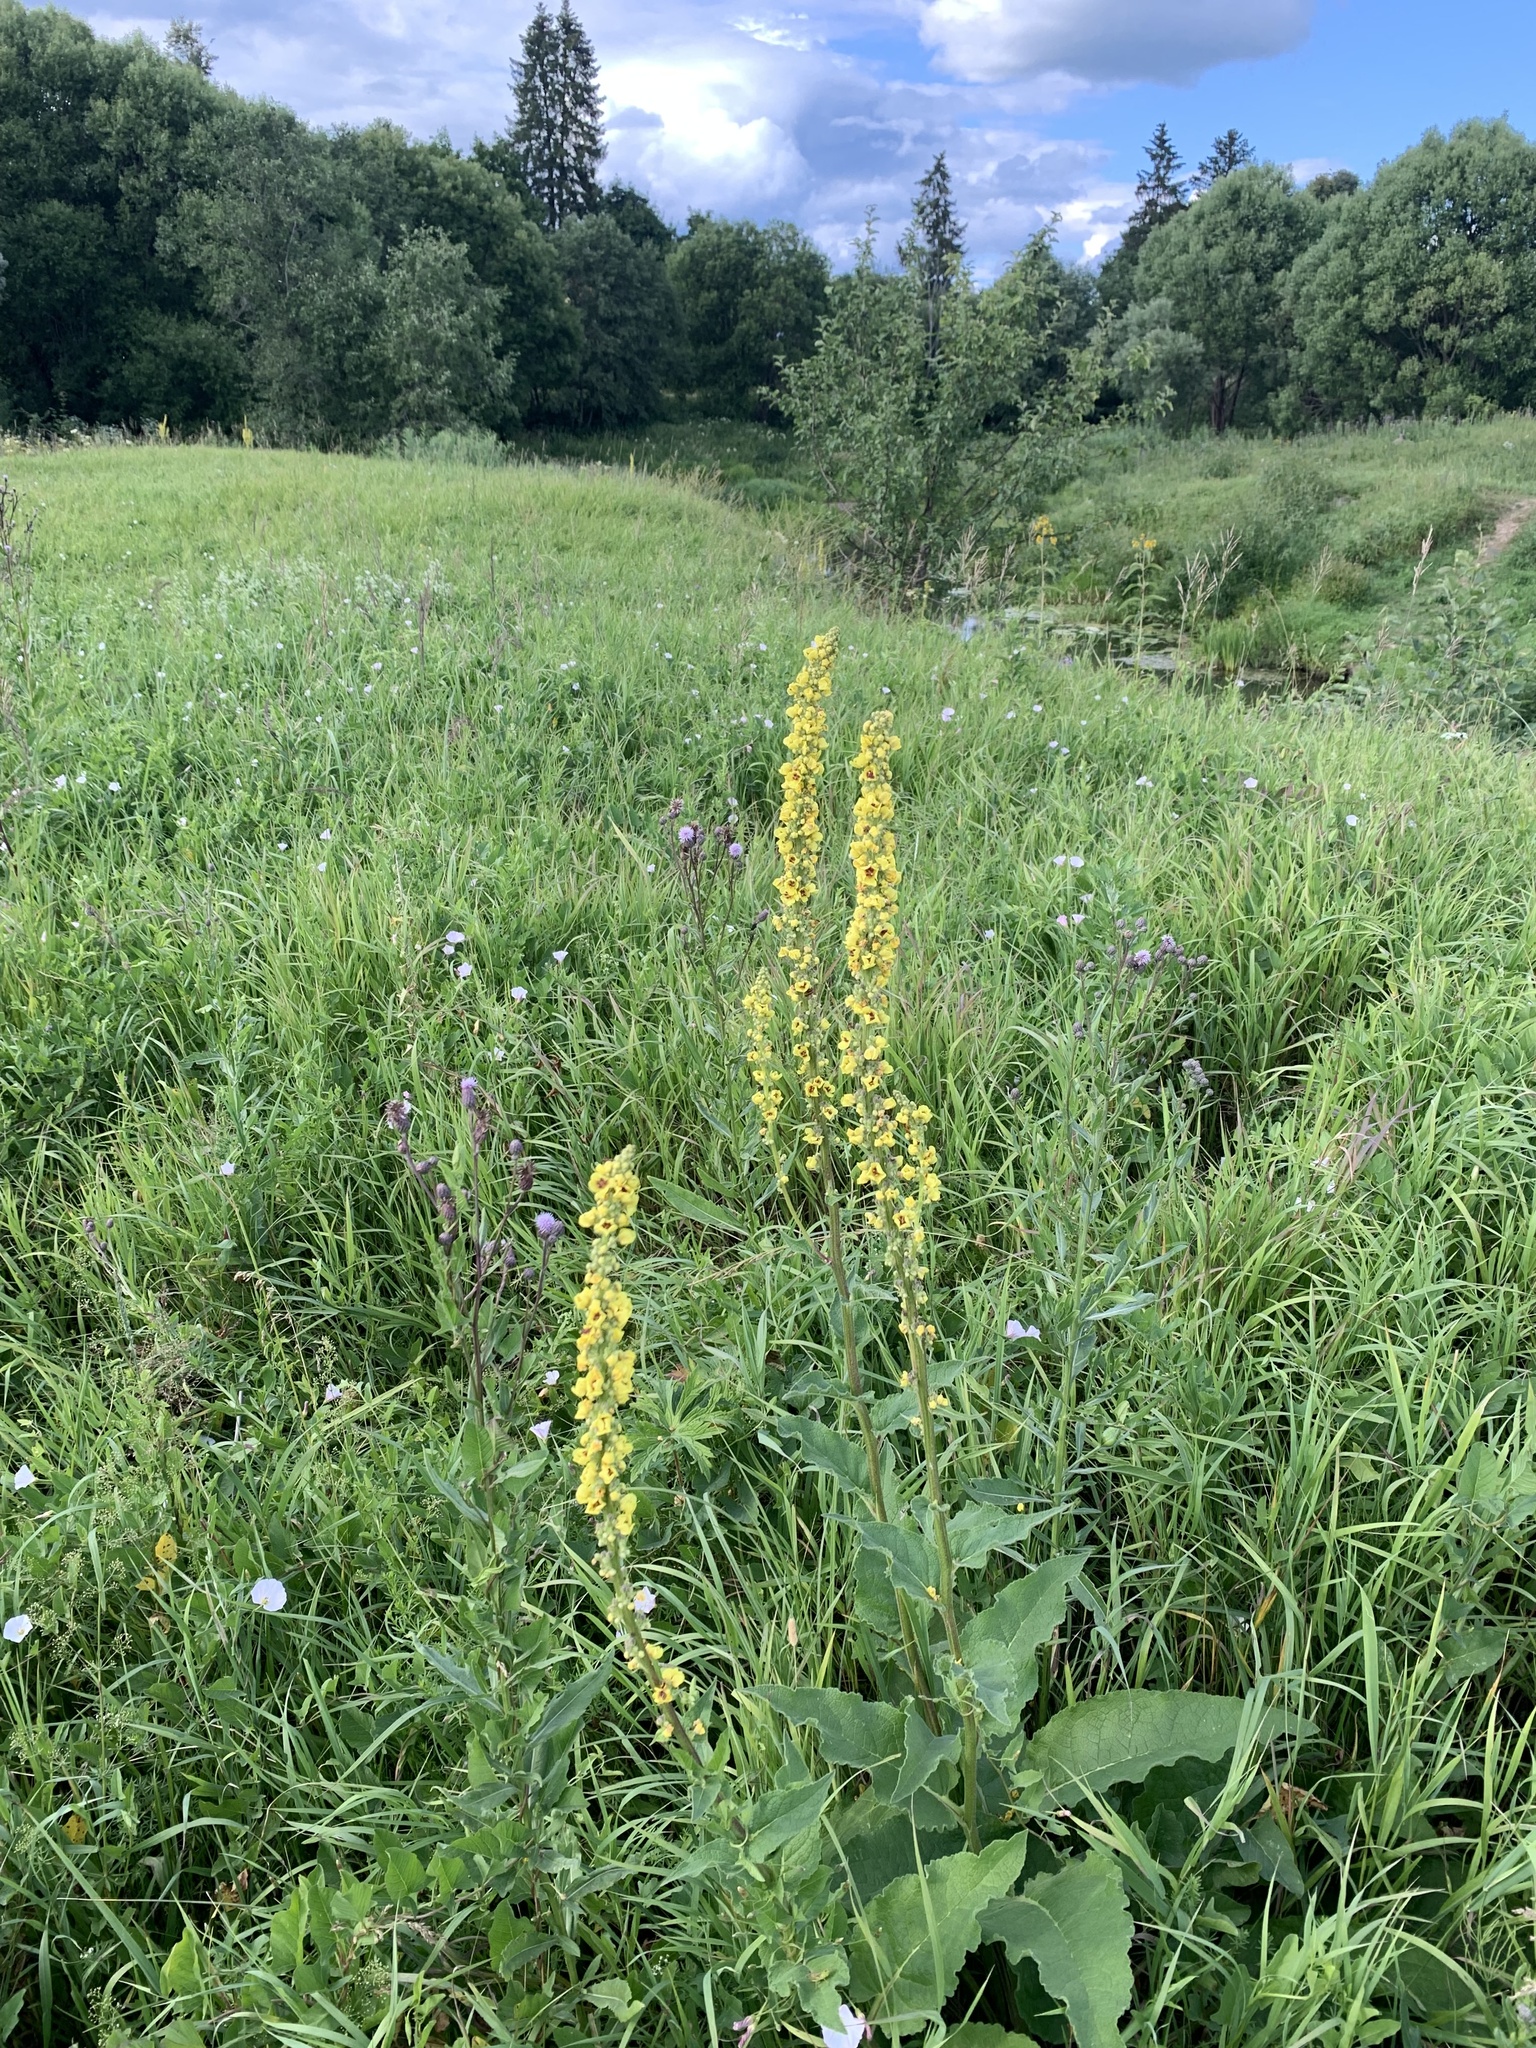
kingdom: Plantae
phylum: Tracheophyta
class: Magnoliopsida
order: Lamiales
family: Scrophulariaceae
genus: Verbascum
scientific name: Verbascum nigrum
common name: Dark mullein
